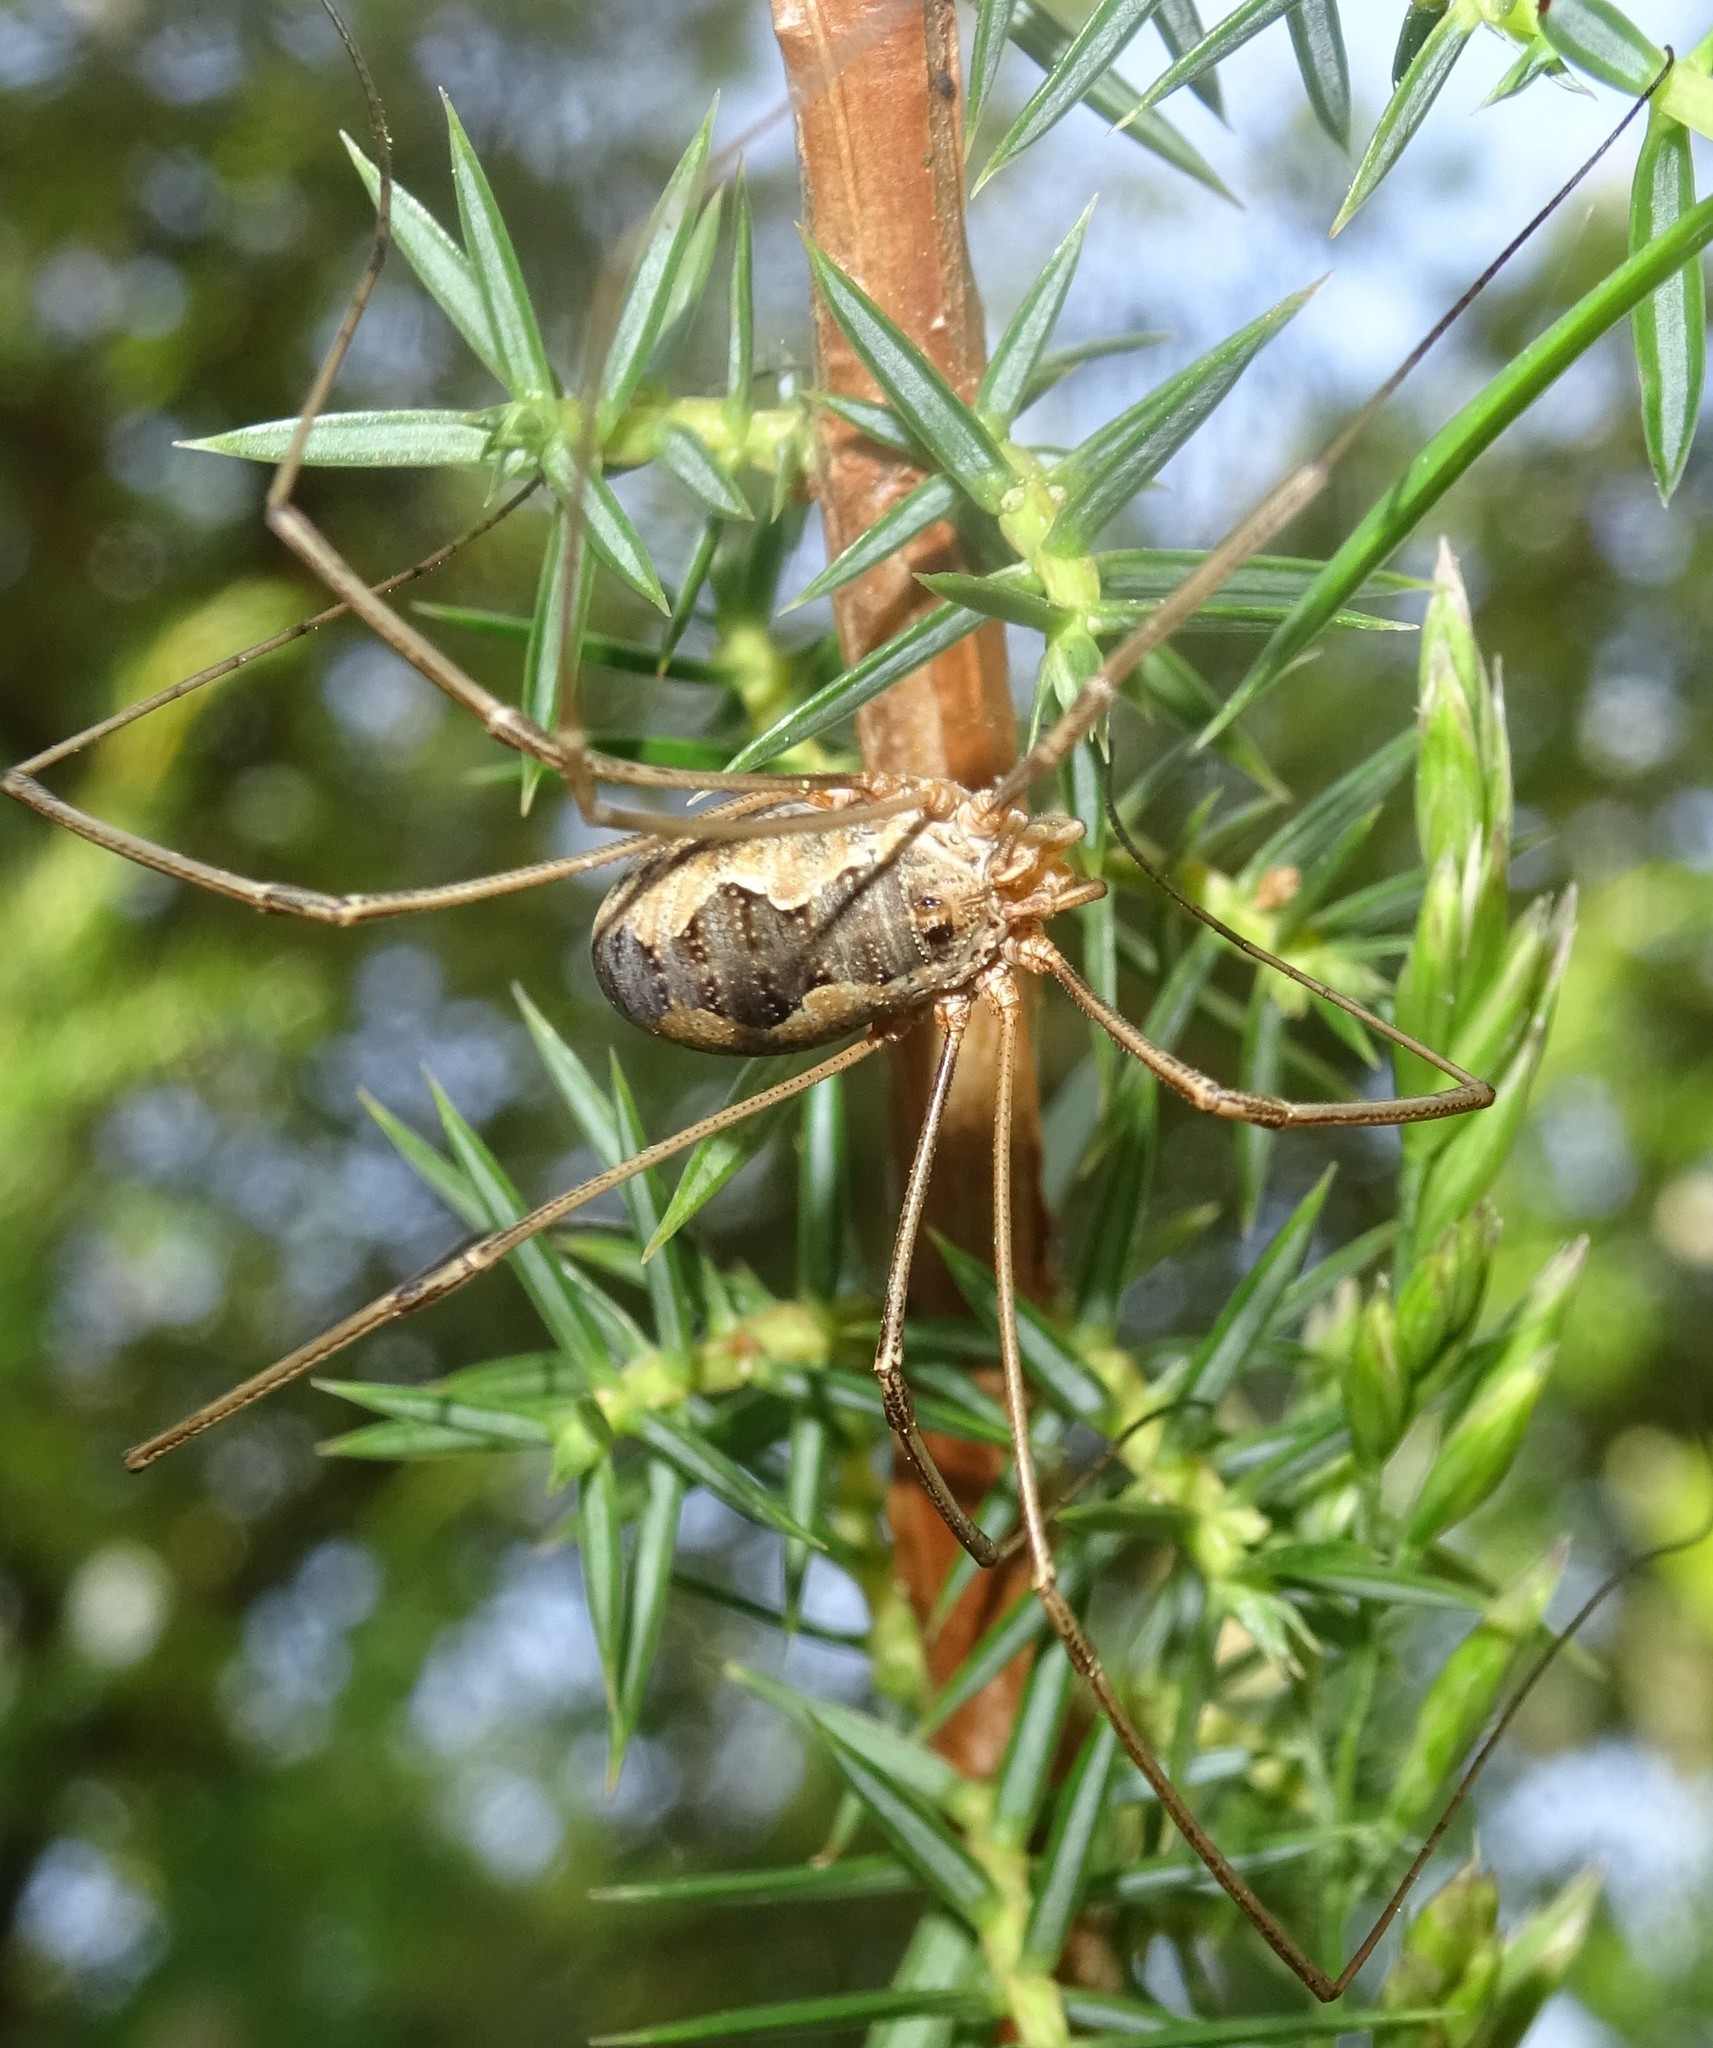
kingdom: Animalia
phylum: Arthropoda
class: Arachnida
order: Opiliones
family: Phalangiidae
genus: Phalangium
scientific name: Phalangium opilio
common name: Daddy longleg
